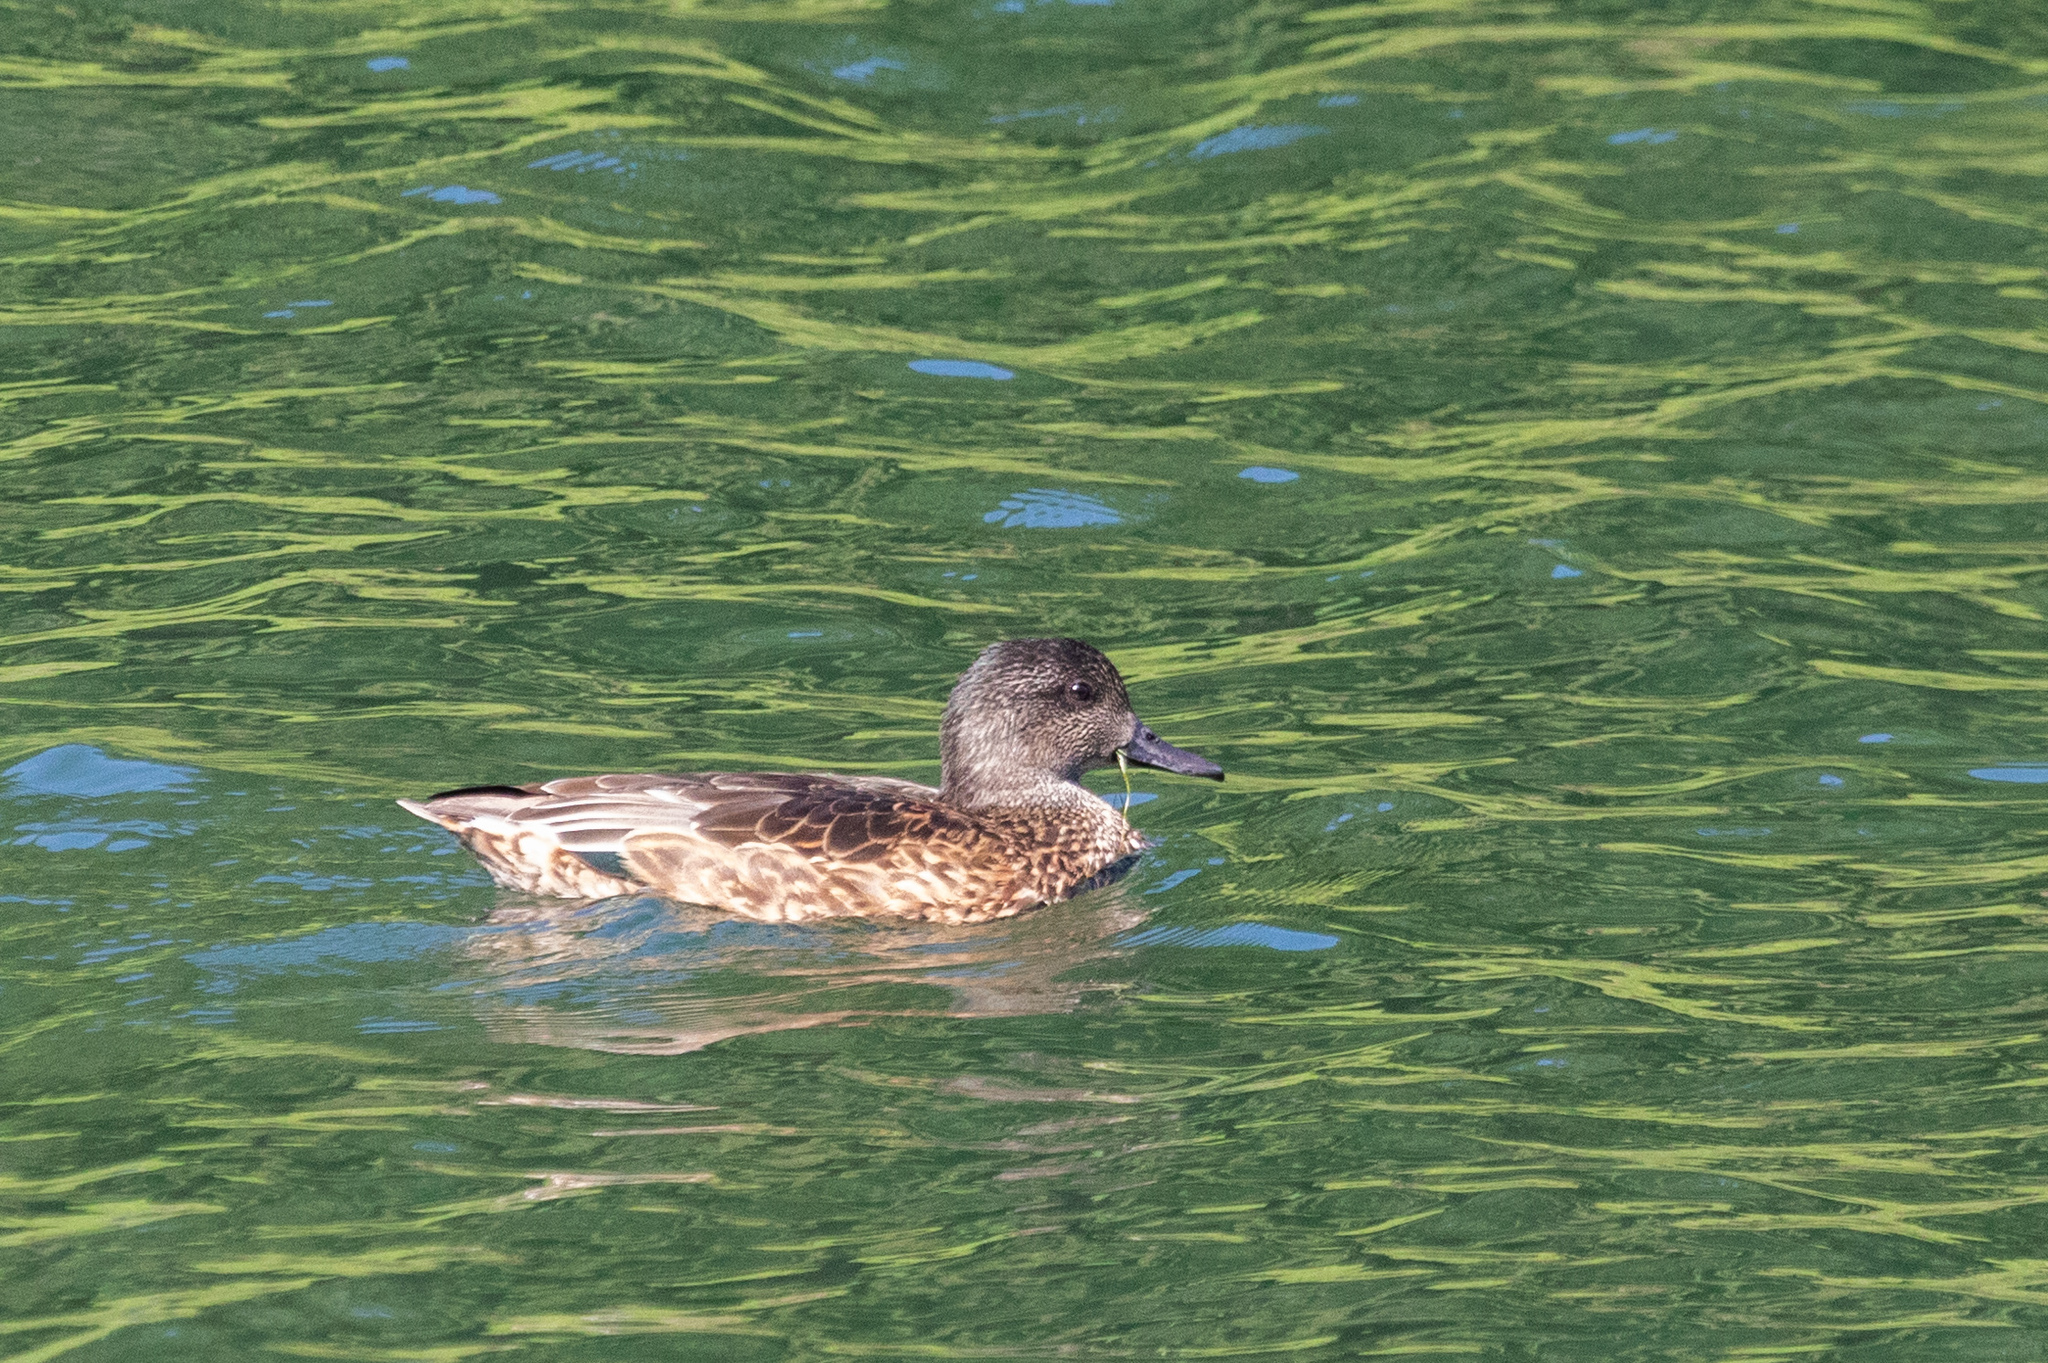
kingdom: Animalia
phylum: Chordata
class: Aves
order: Anseriformes
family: Anatidae
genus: Mareca
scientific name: Mareca falcata
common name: Falcated duck
